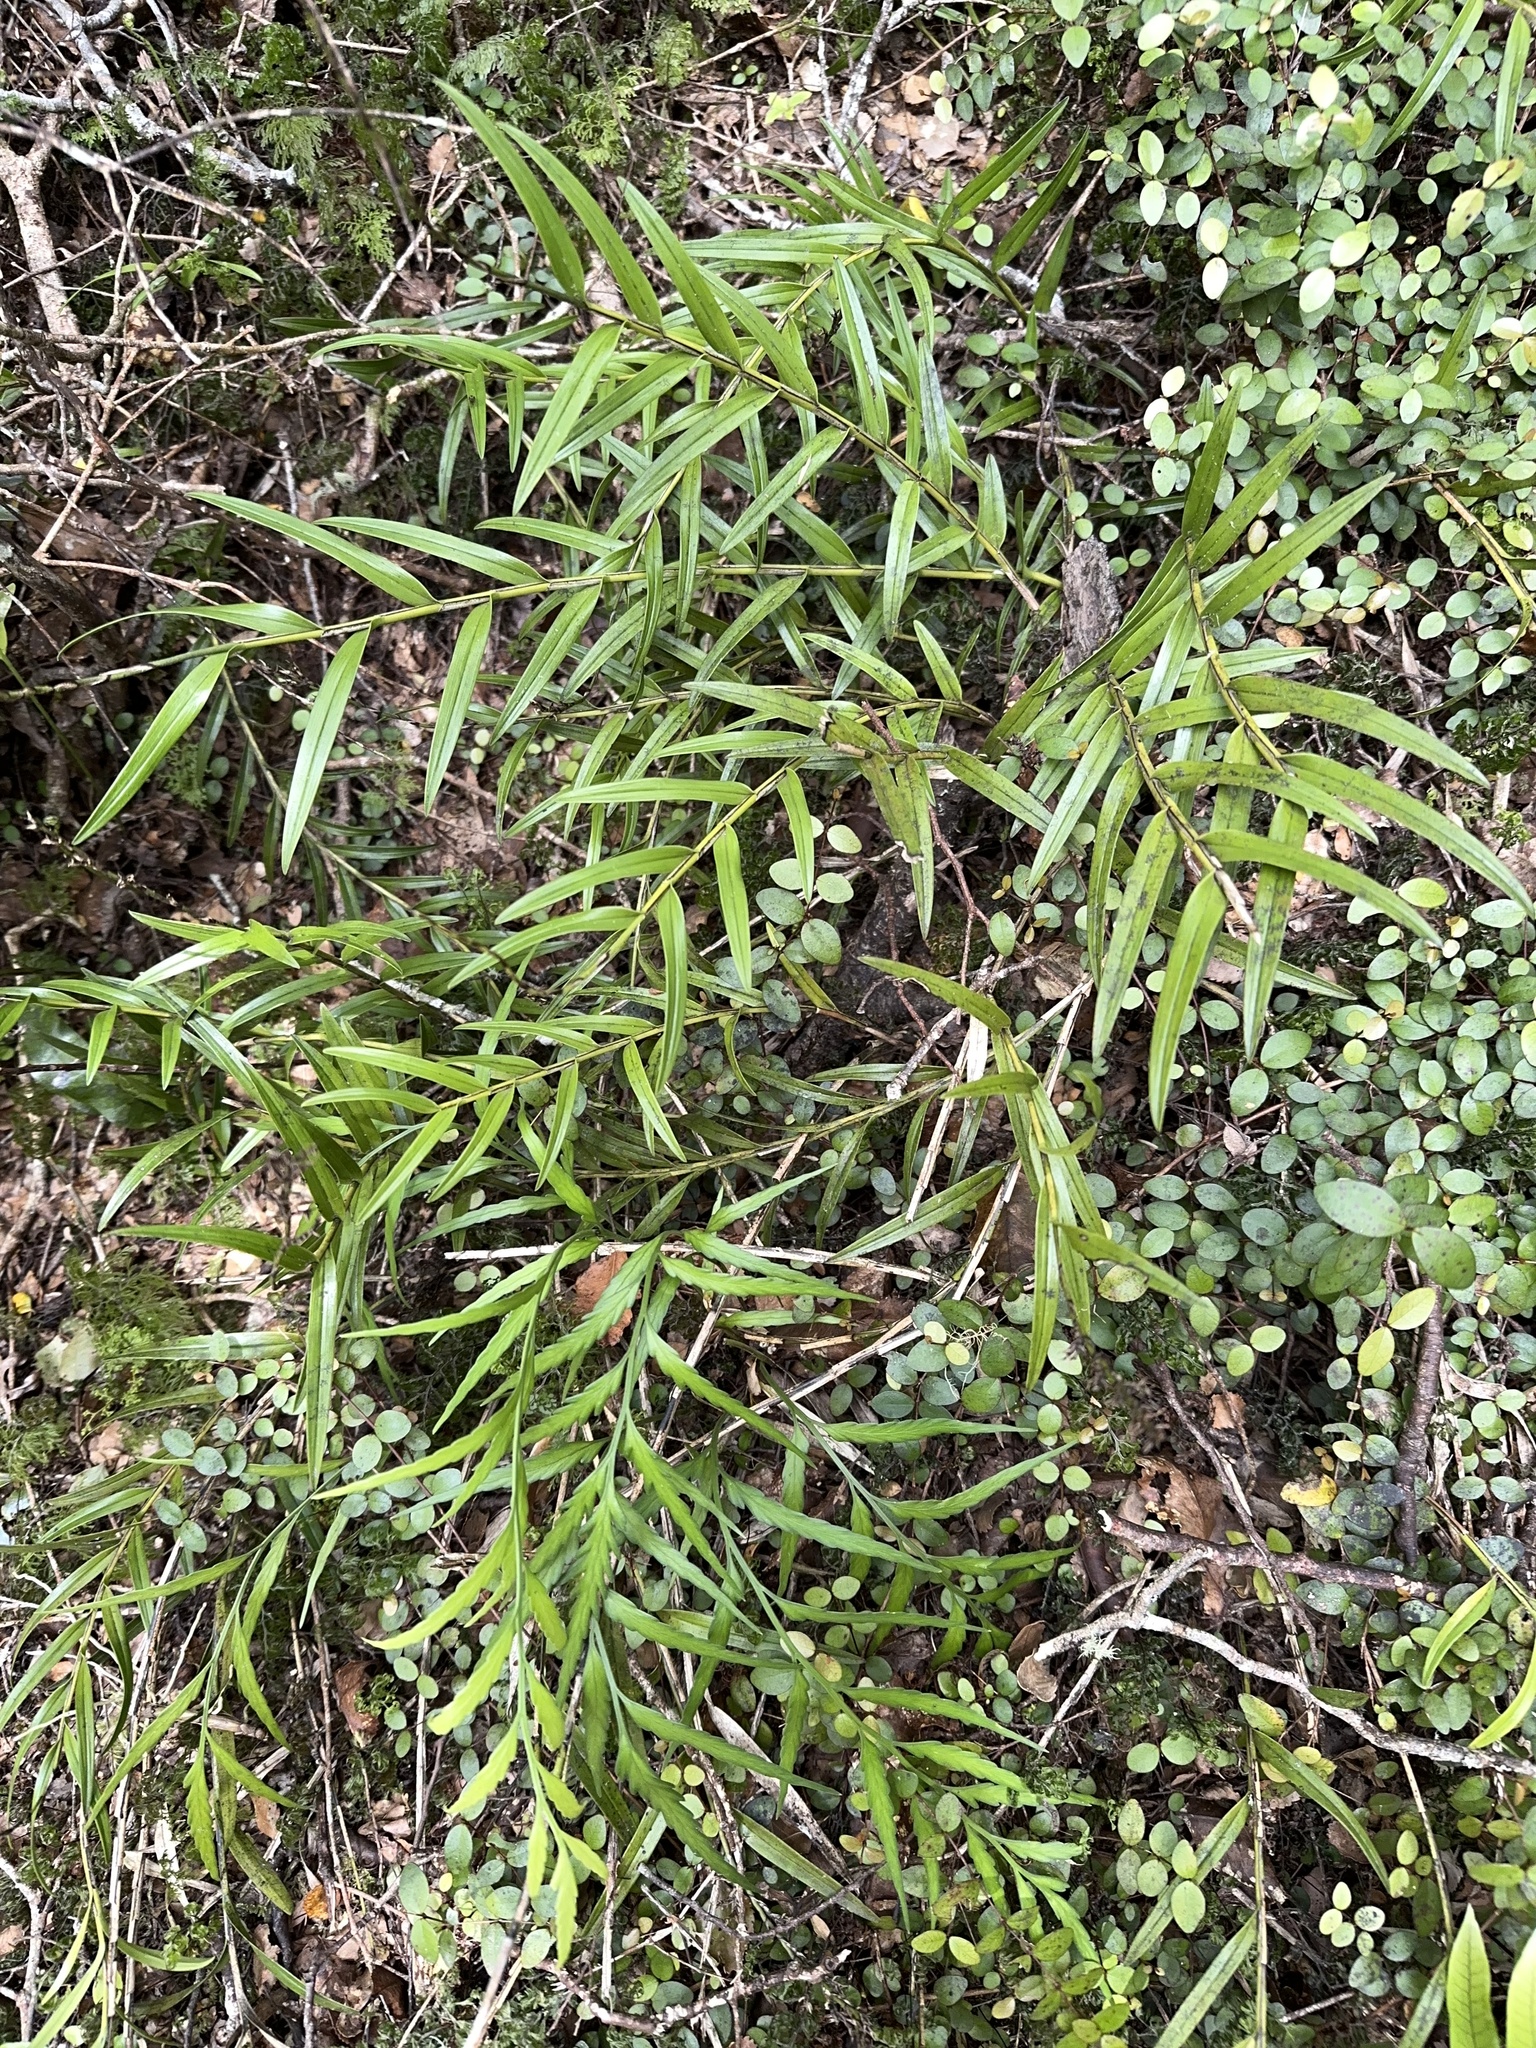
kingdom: Plantae
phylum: Tracheophyta
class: Liliopsida
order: Asparagales
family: Orchidaceae
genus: Earina
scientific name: Earina autumnalis
